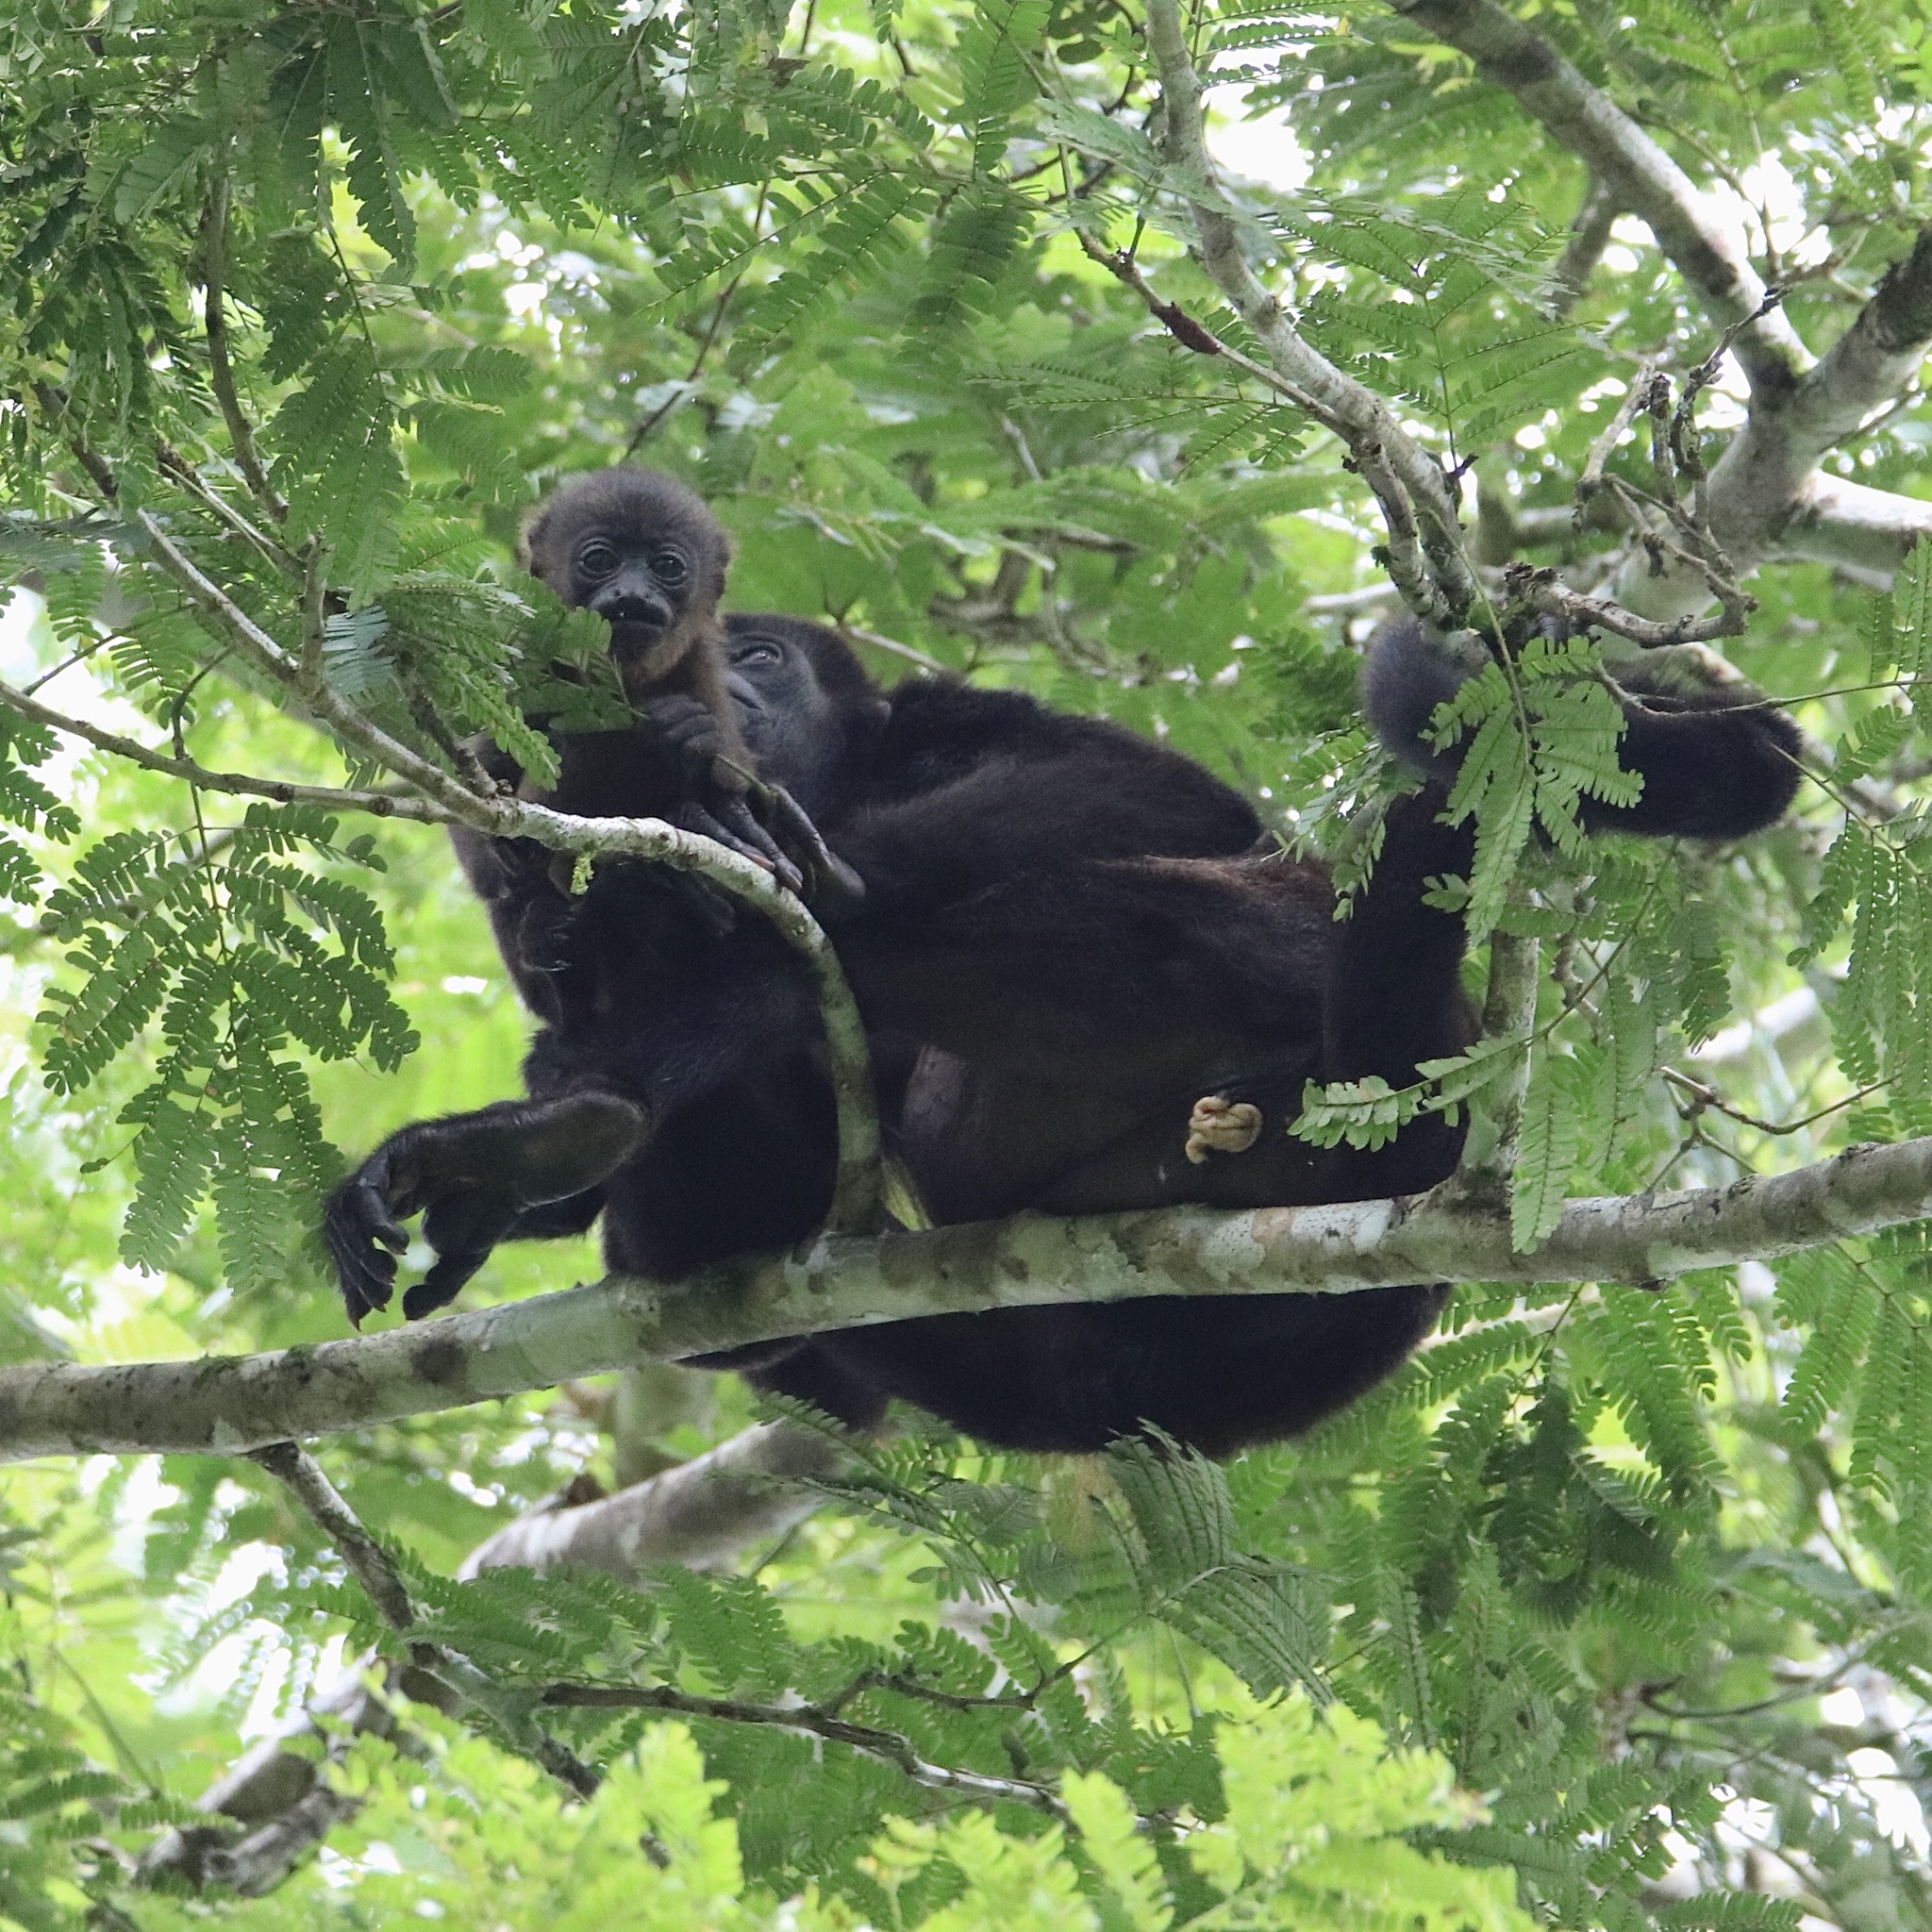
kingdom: Animalia
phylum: Chordata
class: Mammalia
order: Primates
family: Atelidae
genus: Alouatta
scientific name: Alouatta palliata
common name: Mantled howler
